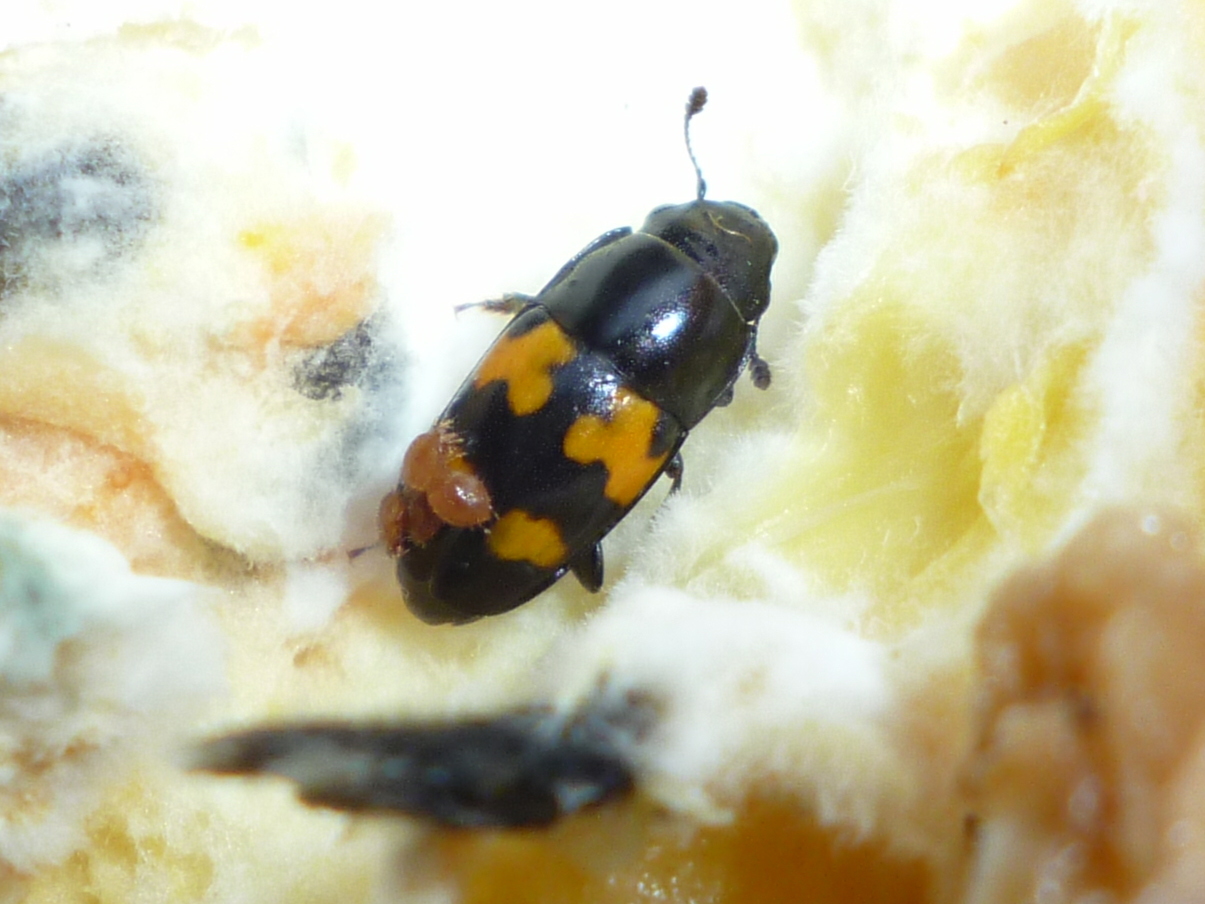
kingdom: Animalia
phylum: Arthropoda
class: Insecta
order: Coleoptera
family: Nitidulidae
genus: Glischrochilus
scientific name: Glischrochilus fasciatus
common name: Picnic beetle
